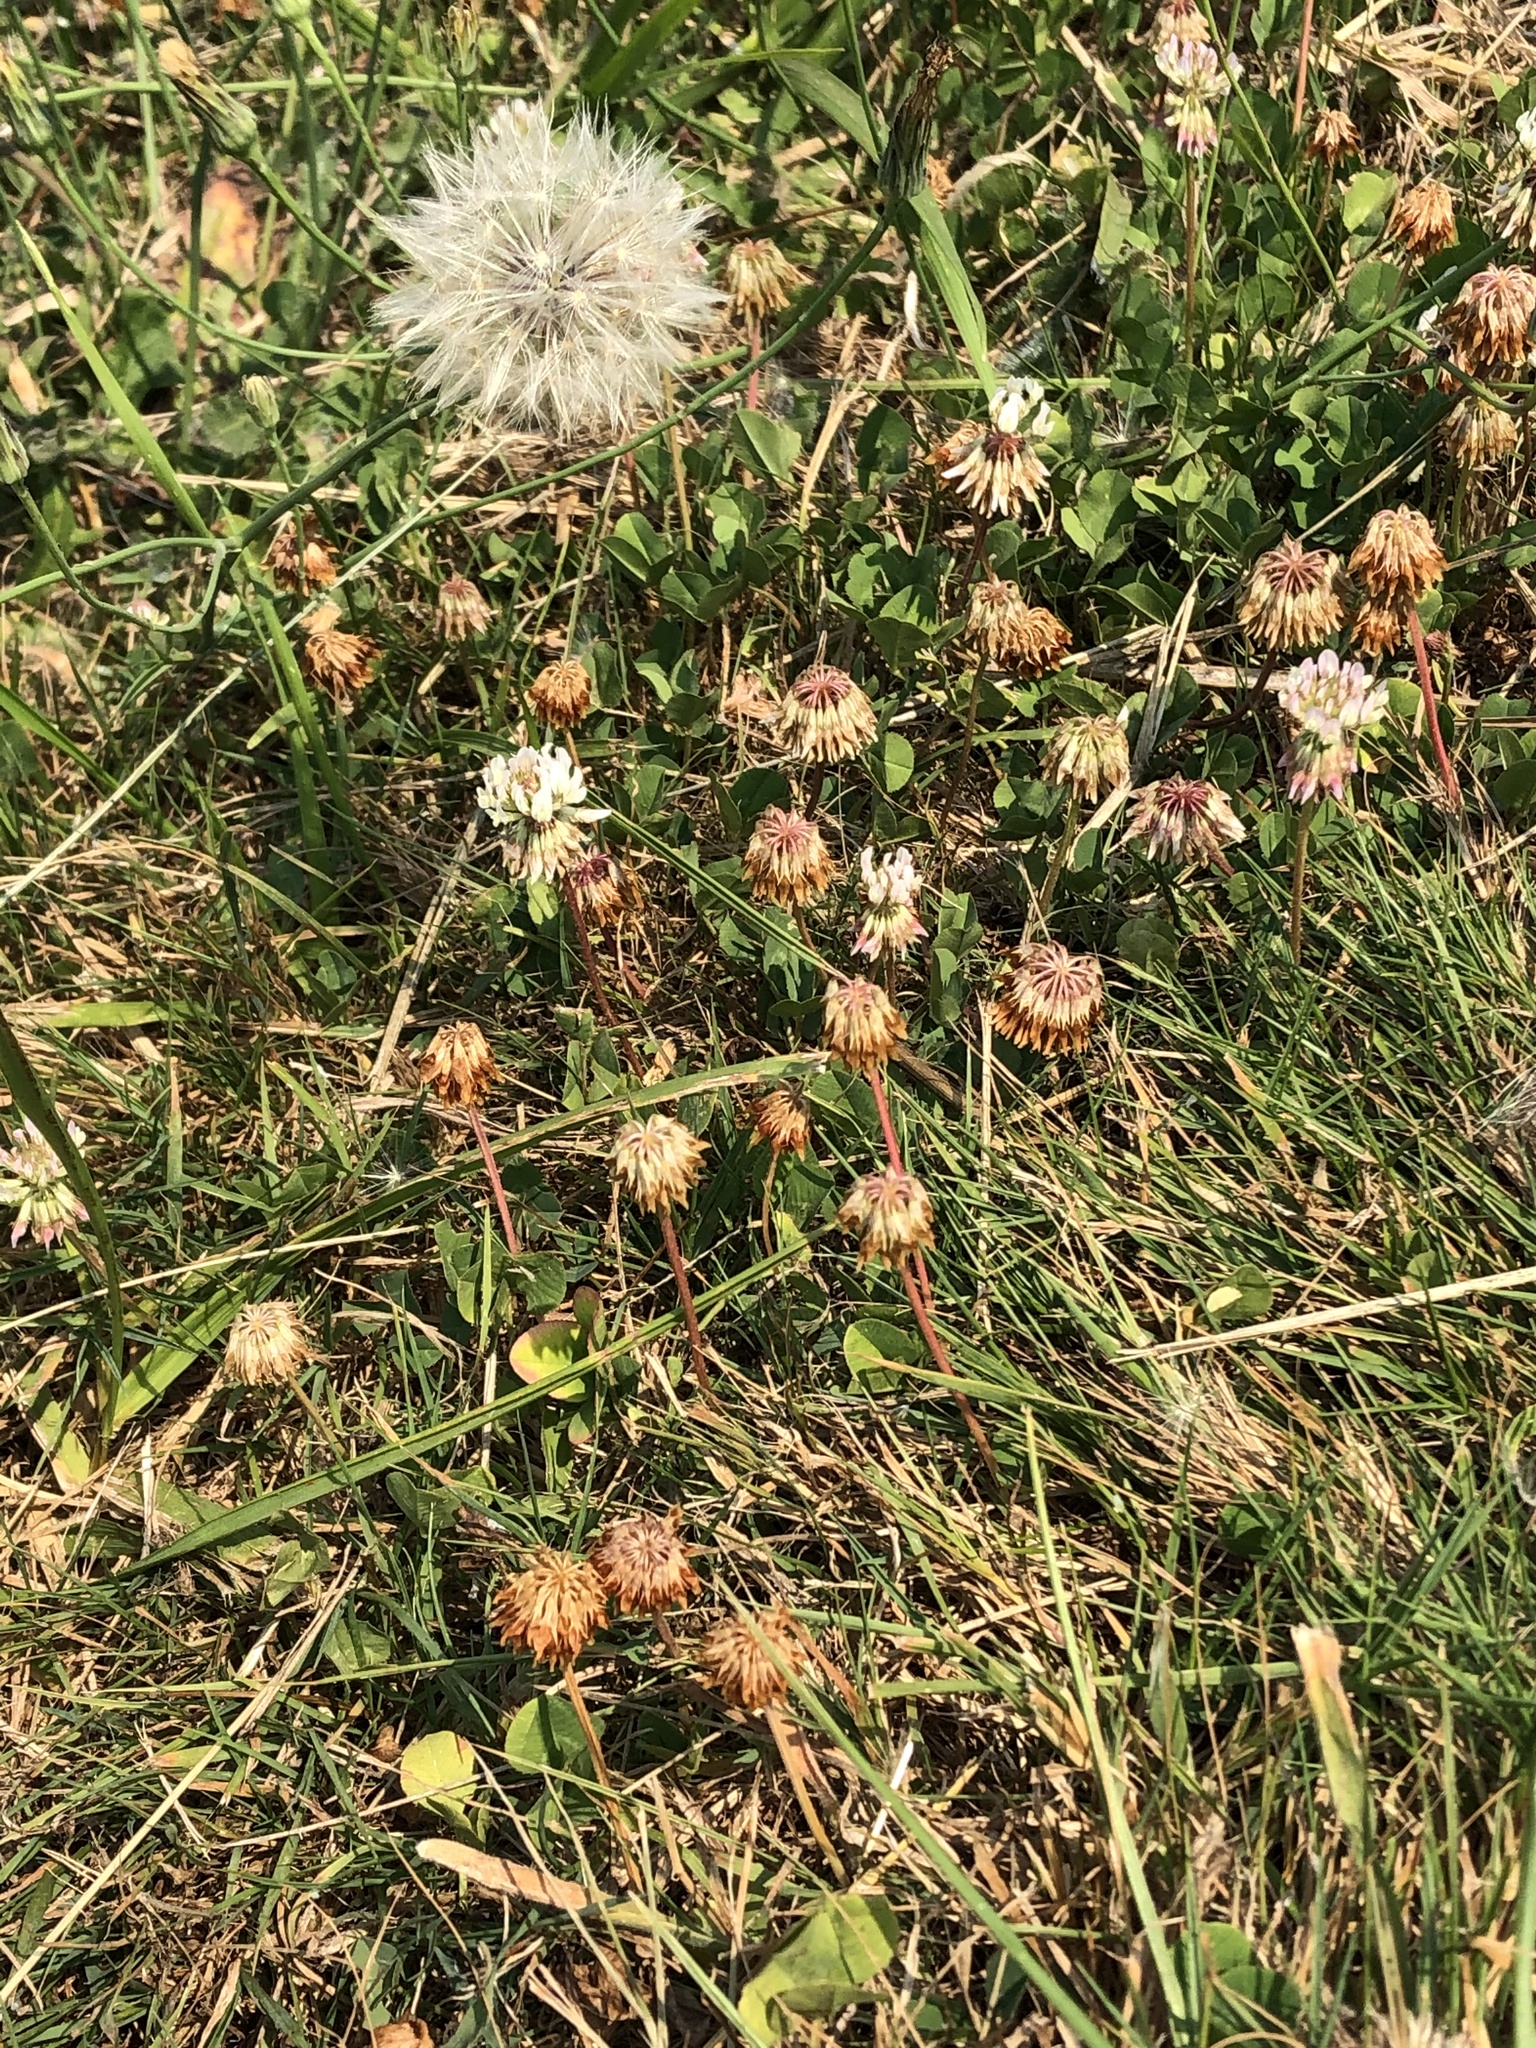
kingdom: Plantae
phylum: Tracheophyta
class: Magnoliopsida
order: Fabales
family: Fabaceae
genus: Trifolium
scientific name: Trifolium repens
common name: White clover
